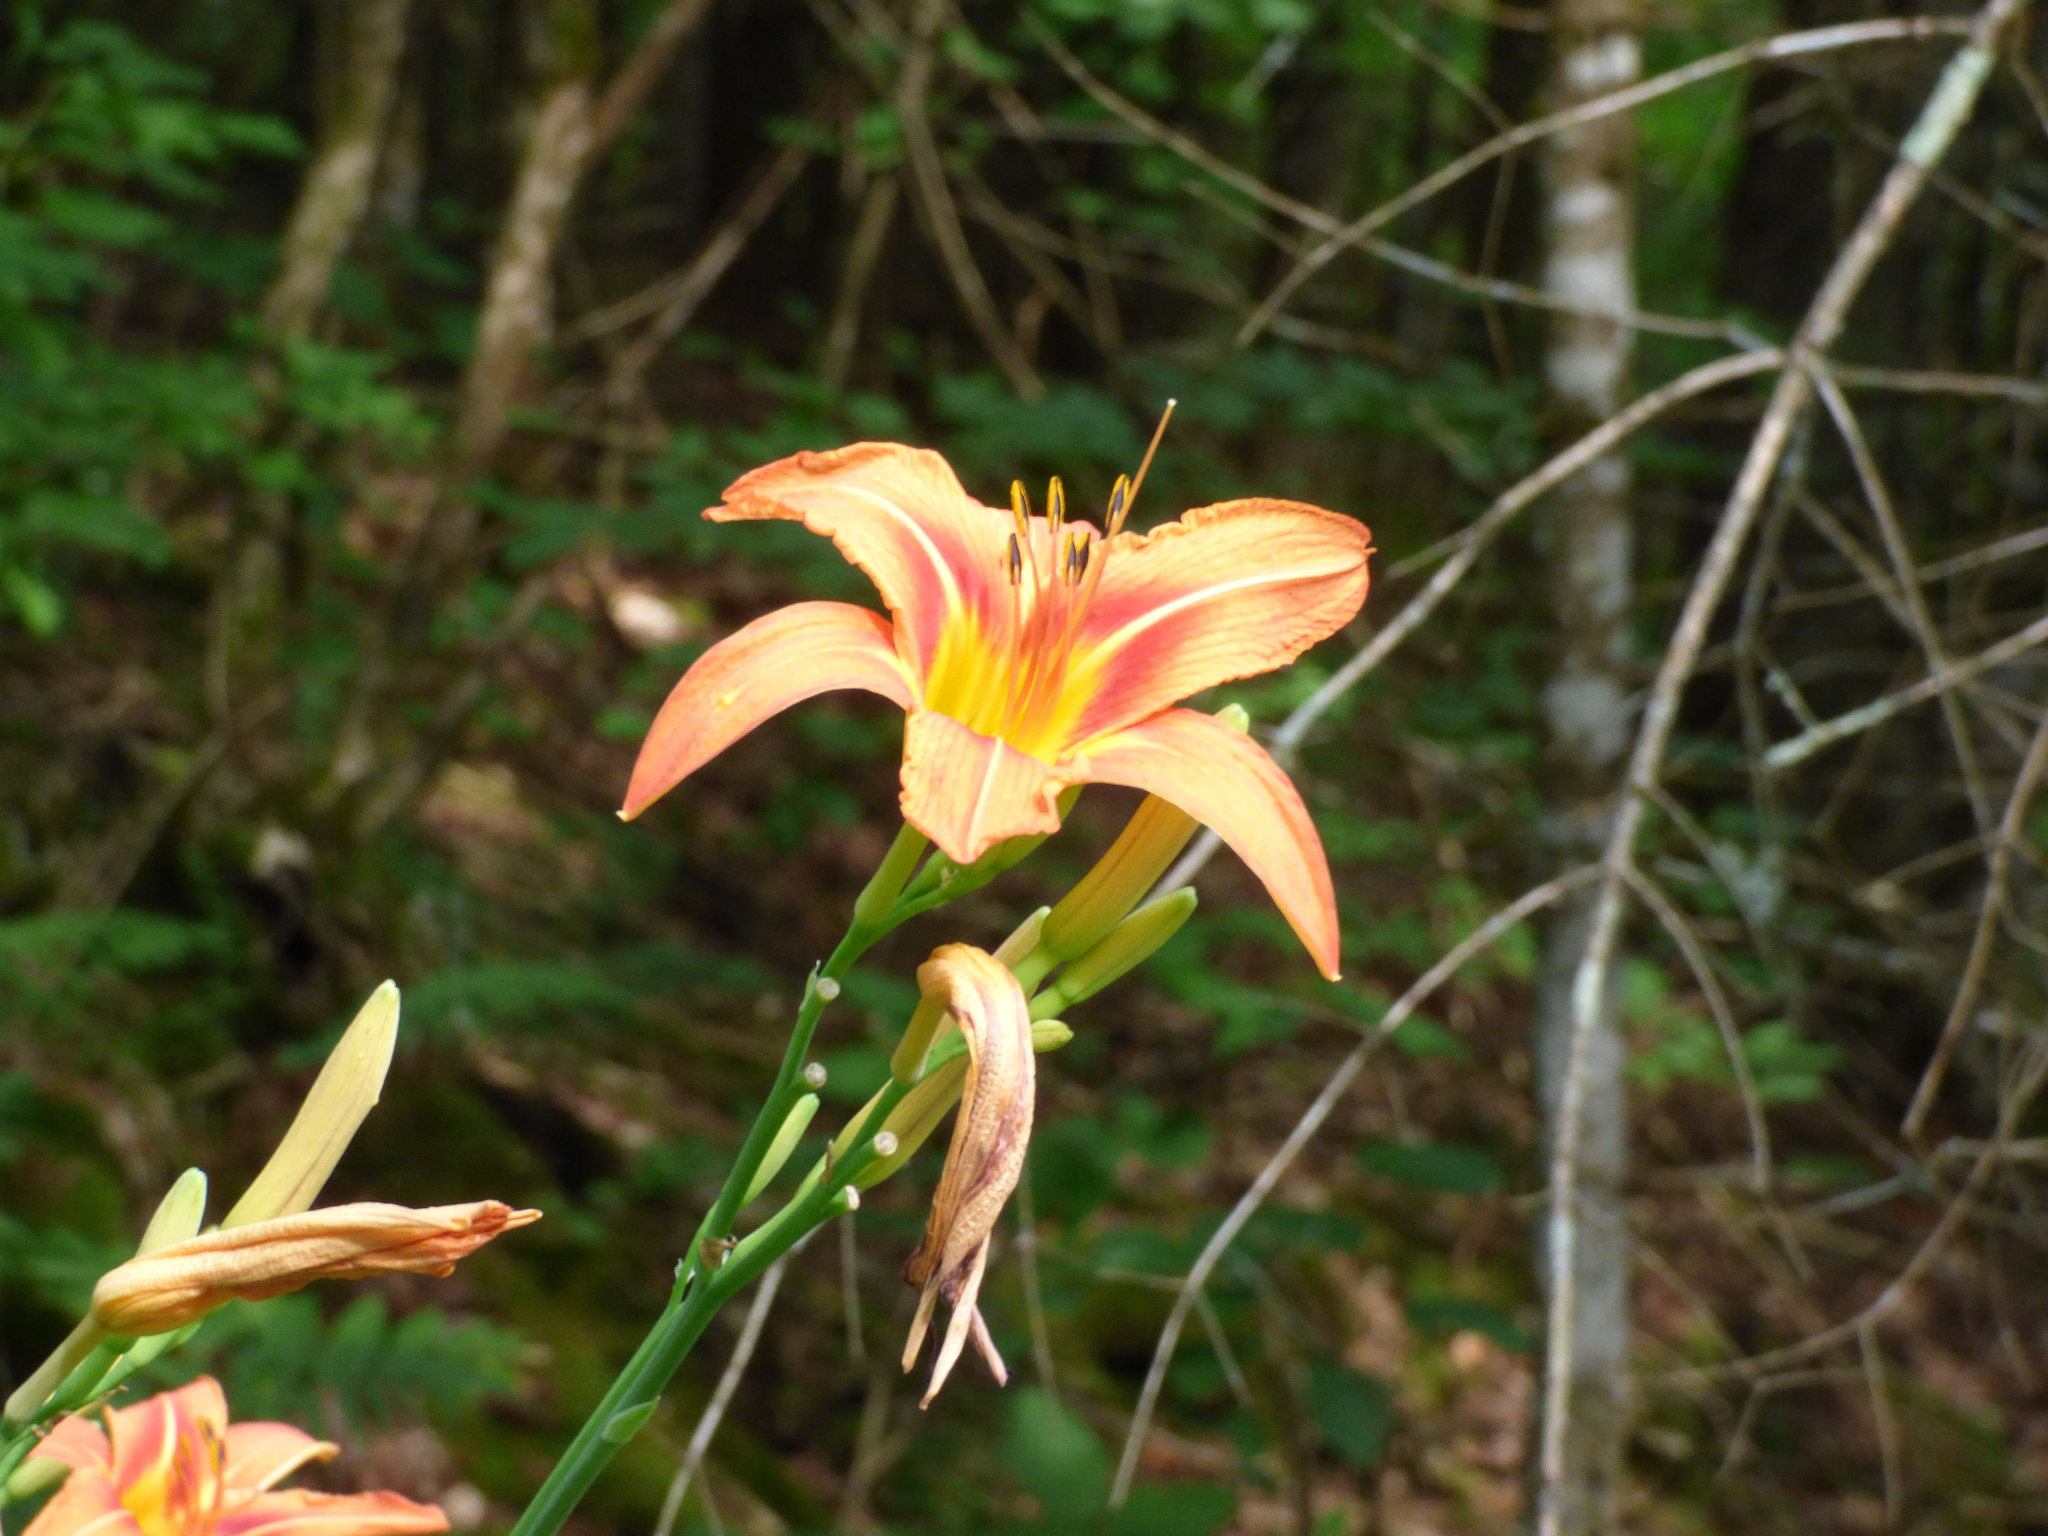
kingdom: Plantae
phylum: Tracheophyta
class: Liliopsida
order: Asparagales
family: Asphodelaceae
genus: Hemerocallis
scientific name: Hemerocallis fulva
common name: Orange day-lily
